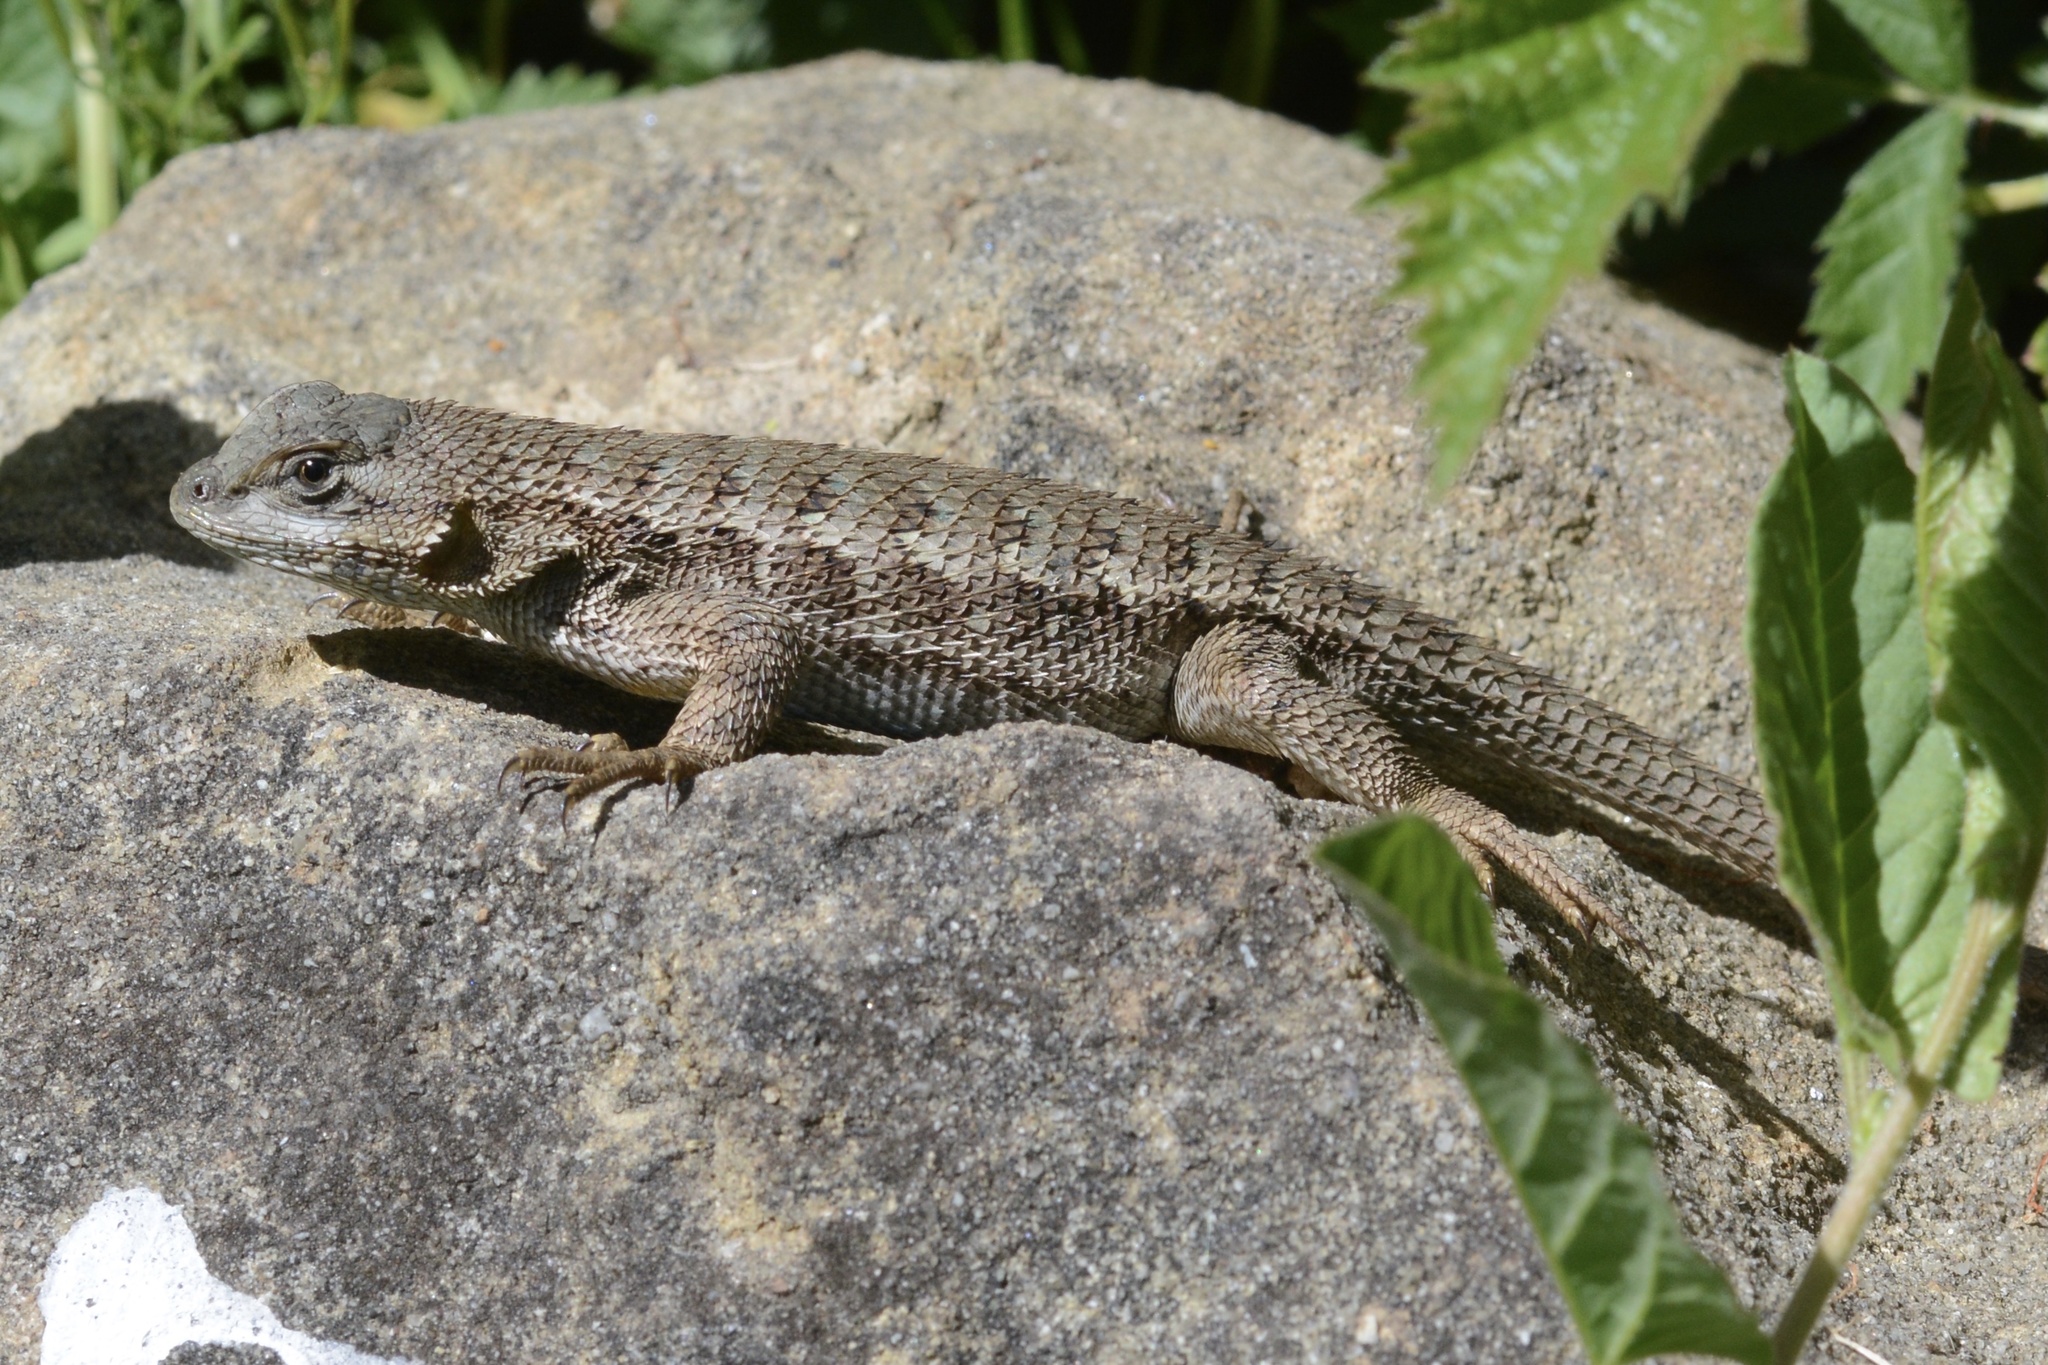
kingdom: Animalia
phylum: Chordata
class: Squamata
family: Phrynosomatidae
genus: Sceloporus
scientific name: Sceloporus occidentalis
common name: Western fence lizard
